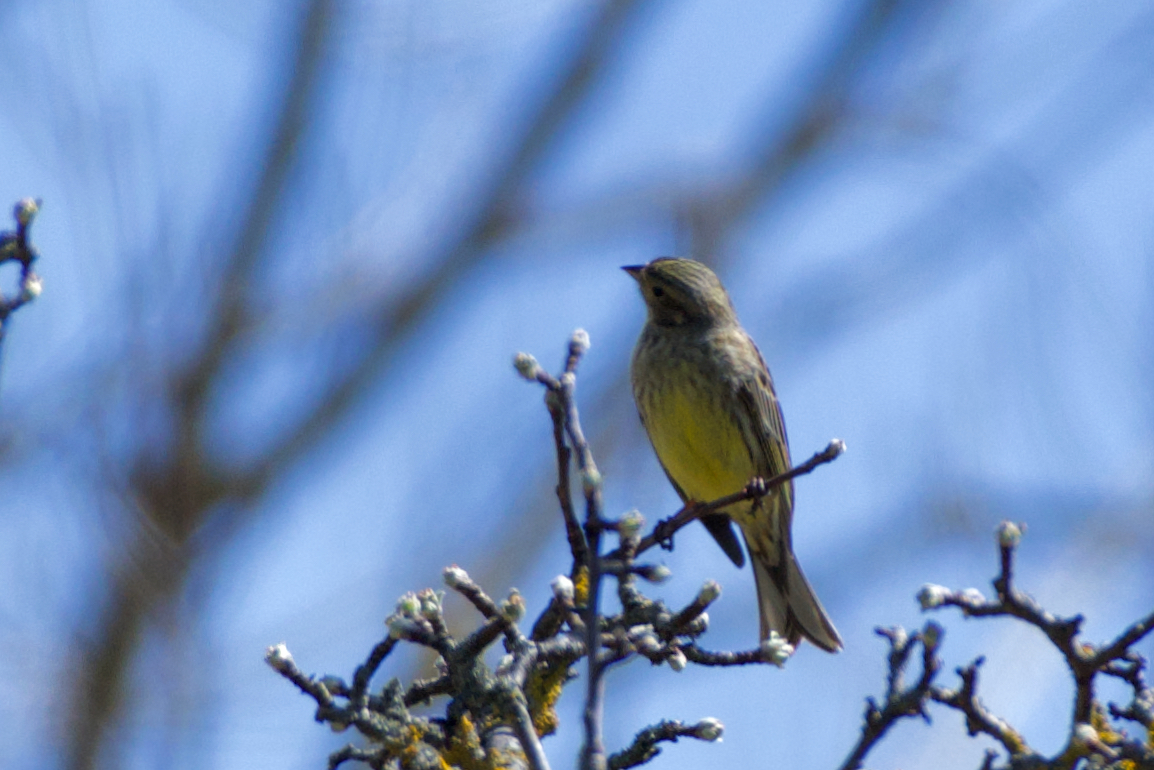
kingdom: Animalia
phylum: Chordata
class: Aves
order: Passeriformes
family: Emberizidae
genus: Emberiza
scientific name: Emberiza citrinella
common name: Yellowhammer
